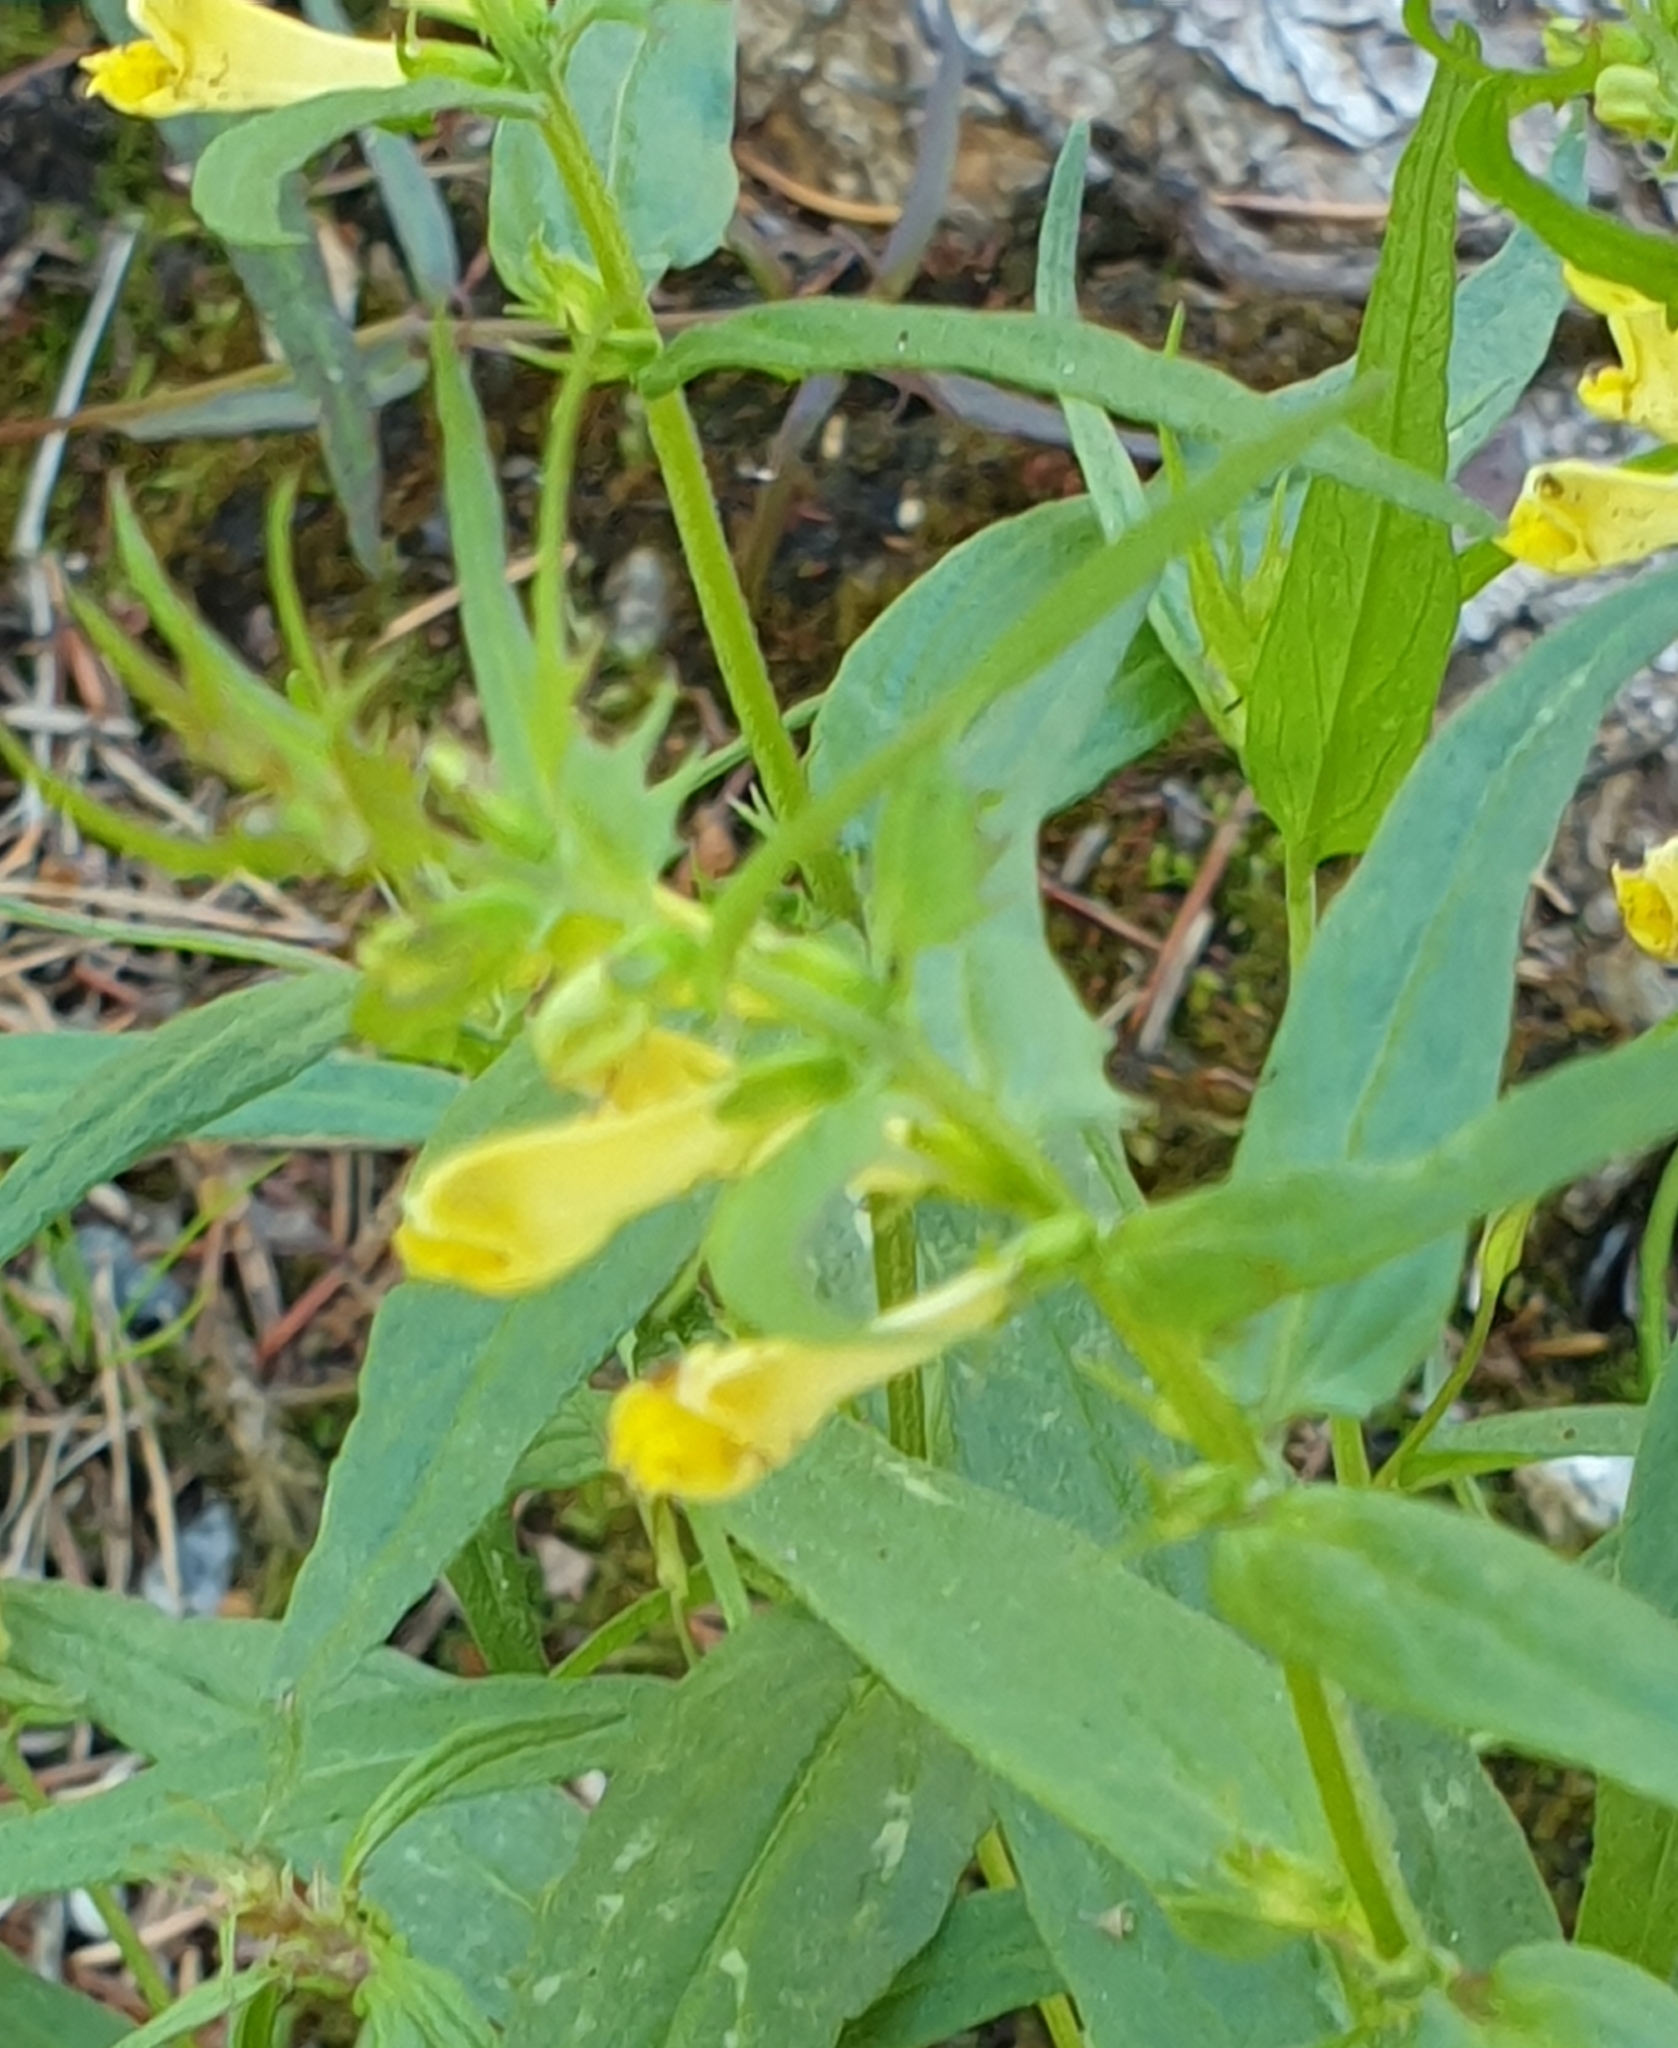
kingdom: Plantae
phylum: Tracheophyta
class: Magnoliopsida
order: Lamiales
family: Orobanchaceae
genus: Melampyrum
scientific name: Melampyrum pratense
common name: Common cow-wheat
